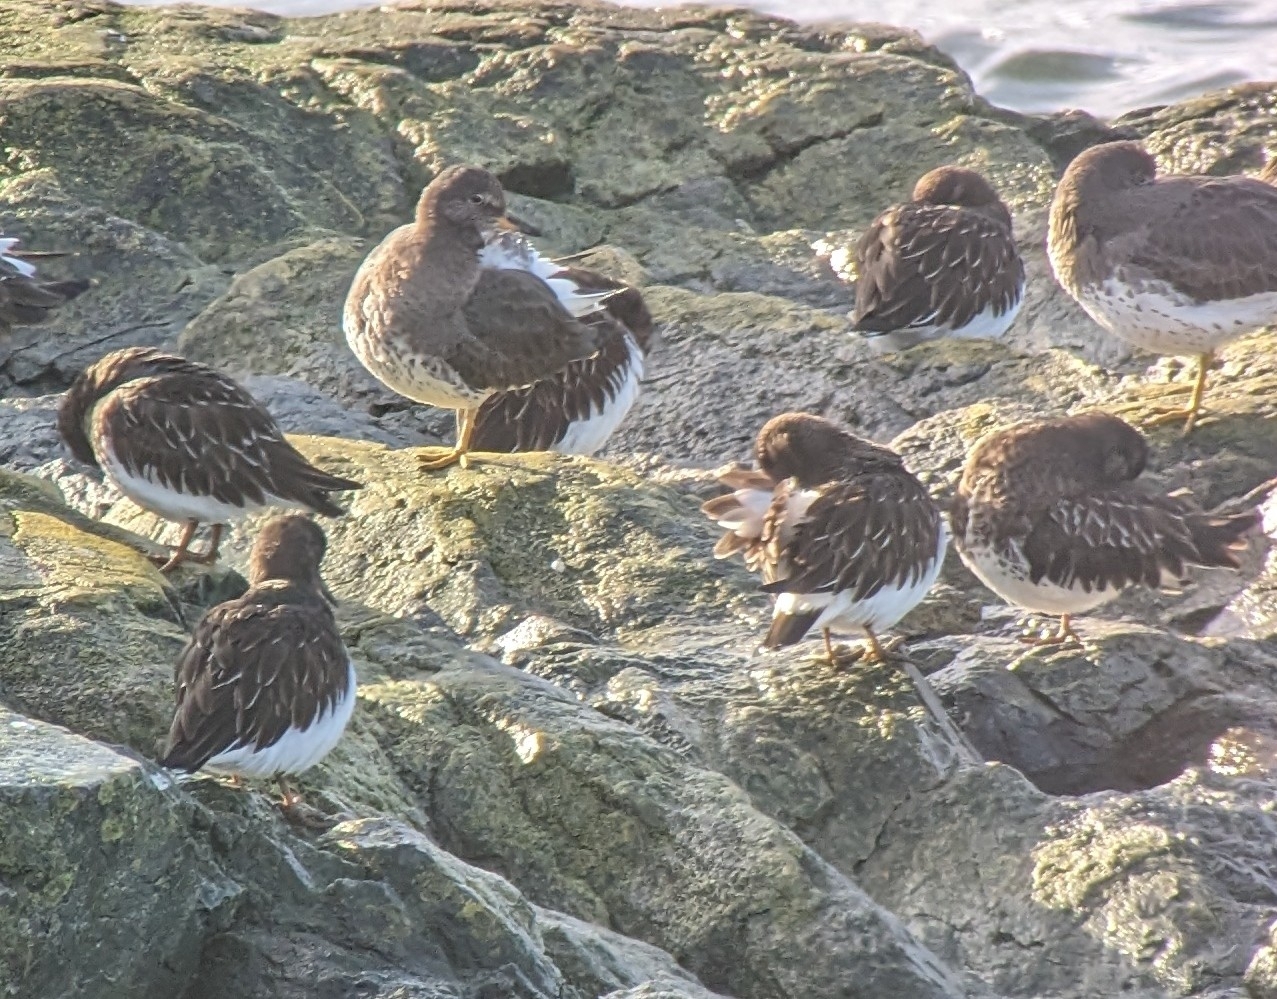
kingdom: Animalia
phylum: Chordata
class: Aves
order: Charadriiformes
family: Scolopacidae
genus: Arenaria
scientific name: Arenaria melanocephala
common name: Black turnstone
